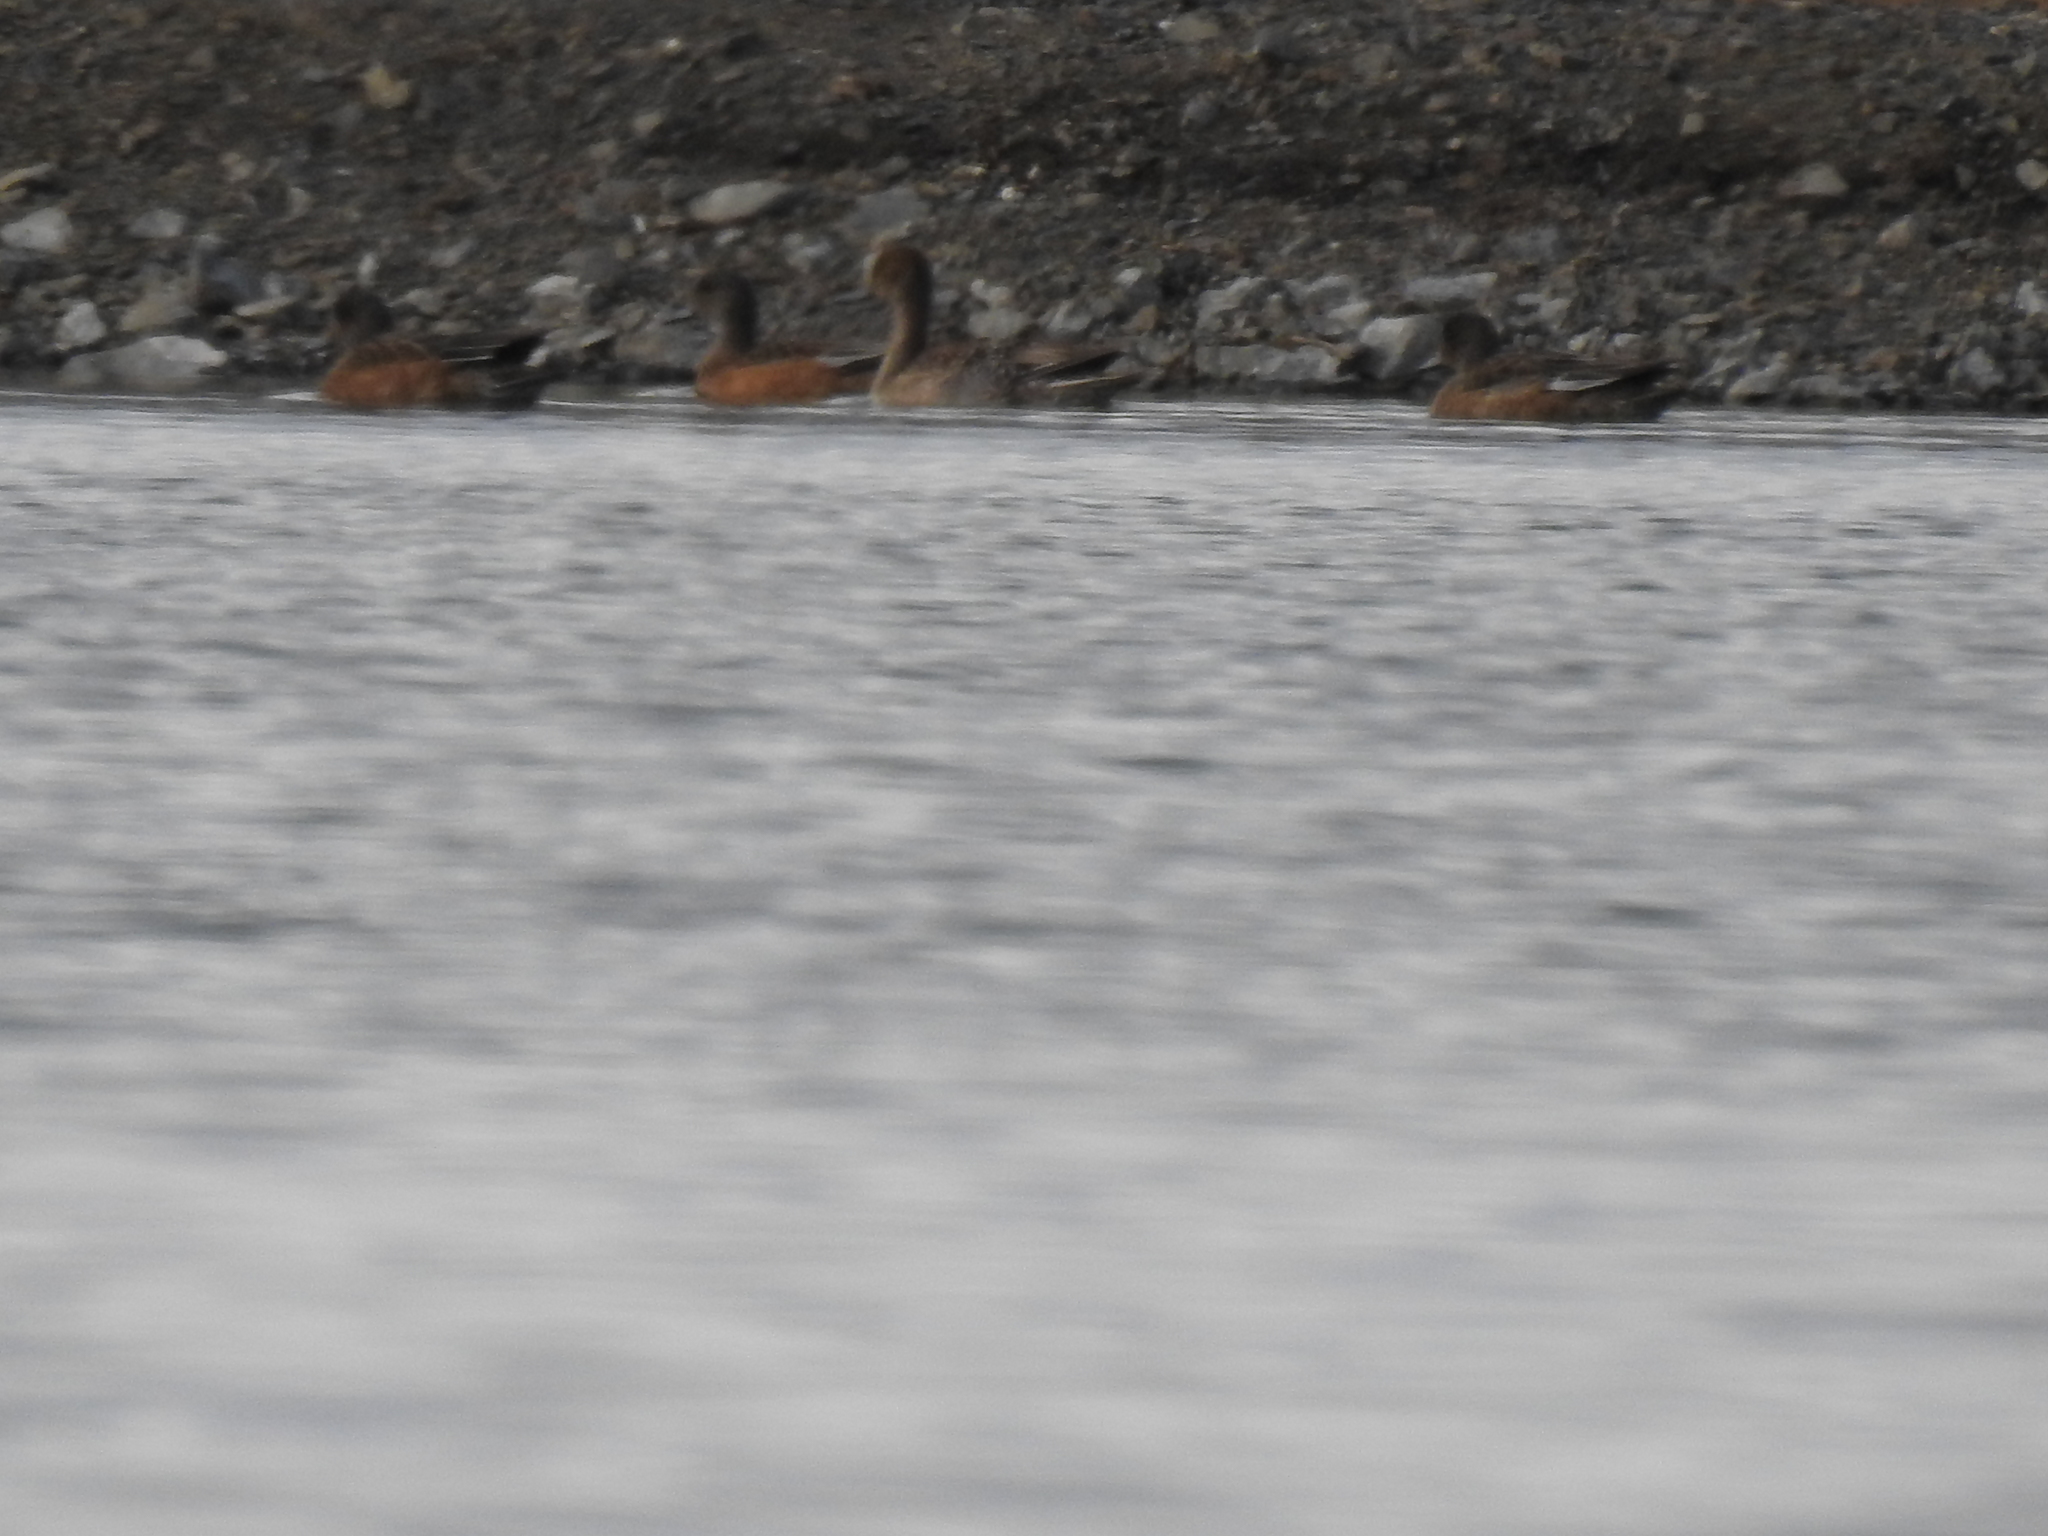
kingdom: Animalia
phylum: Chordata
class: Aves
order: Anseriformes
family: Anatidae
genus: Mareca
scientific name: Mareca americana
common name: American wigeon
